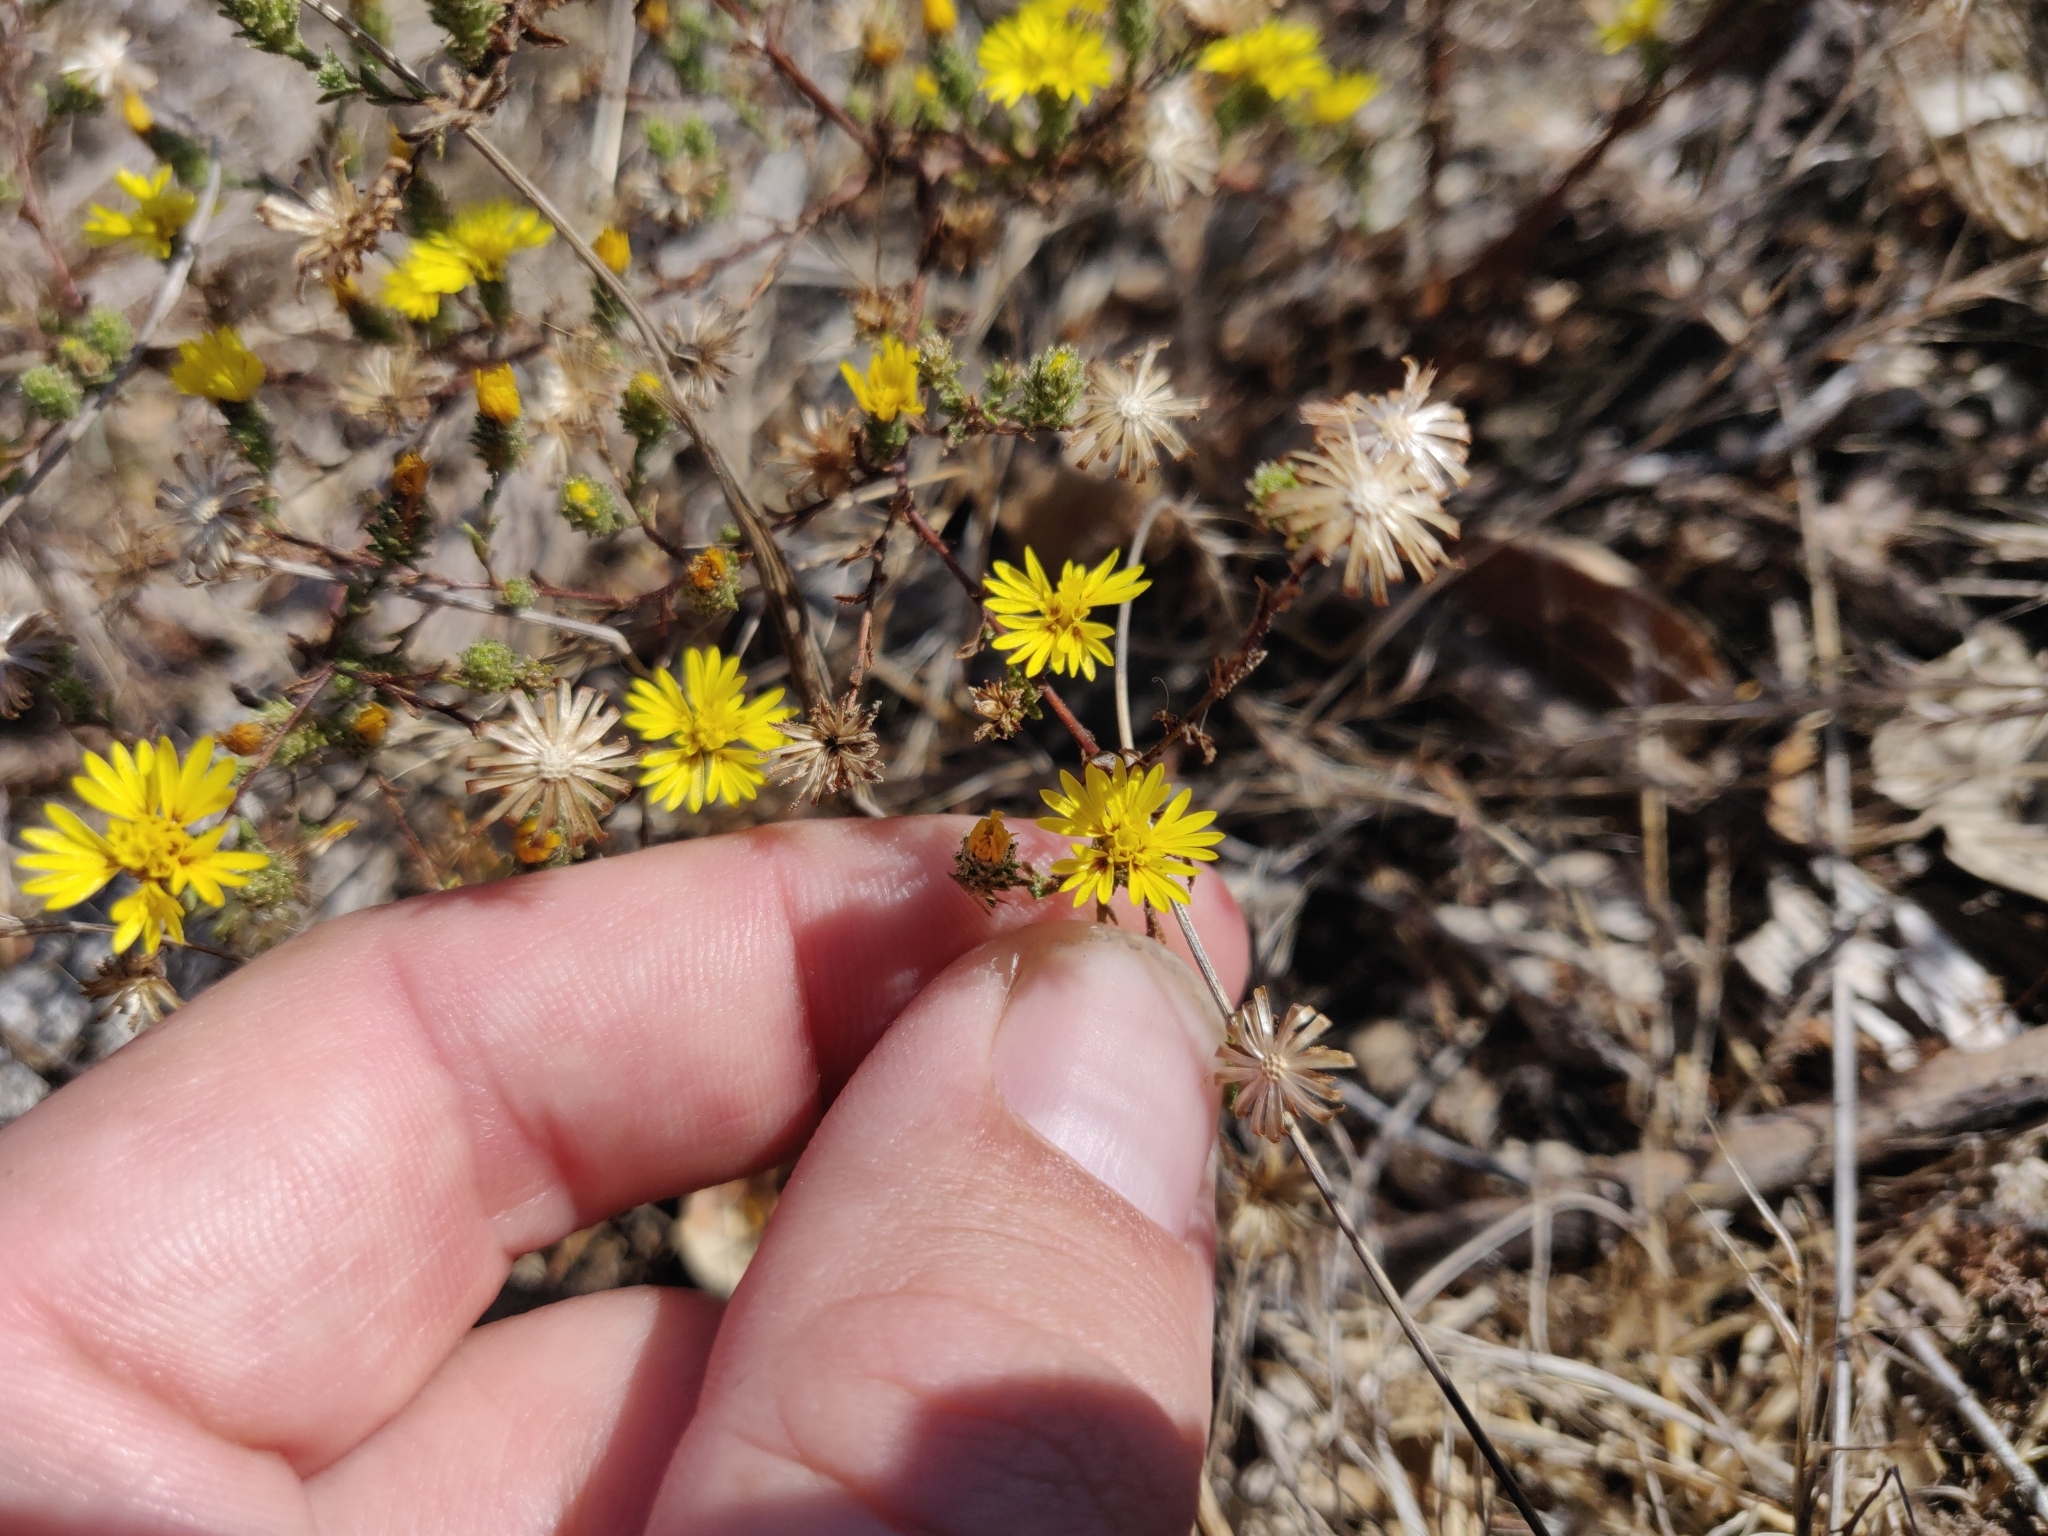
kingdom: Plantae
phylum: Tracheophyta
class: Magnoliopsida
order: Asterales
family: Asteraceae
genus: Lessingia
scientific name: Lessingia pectinata
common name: Valley lessingia
